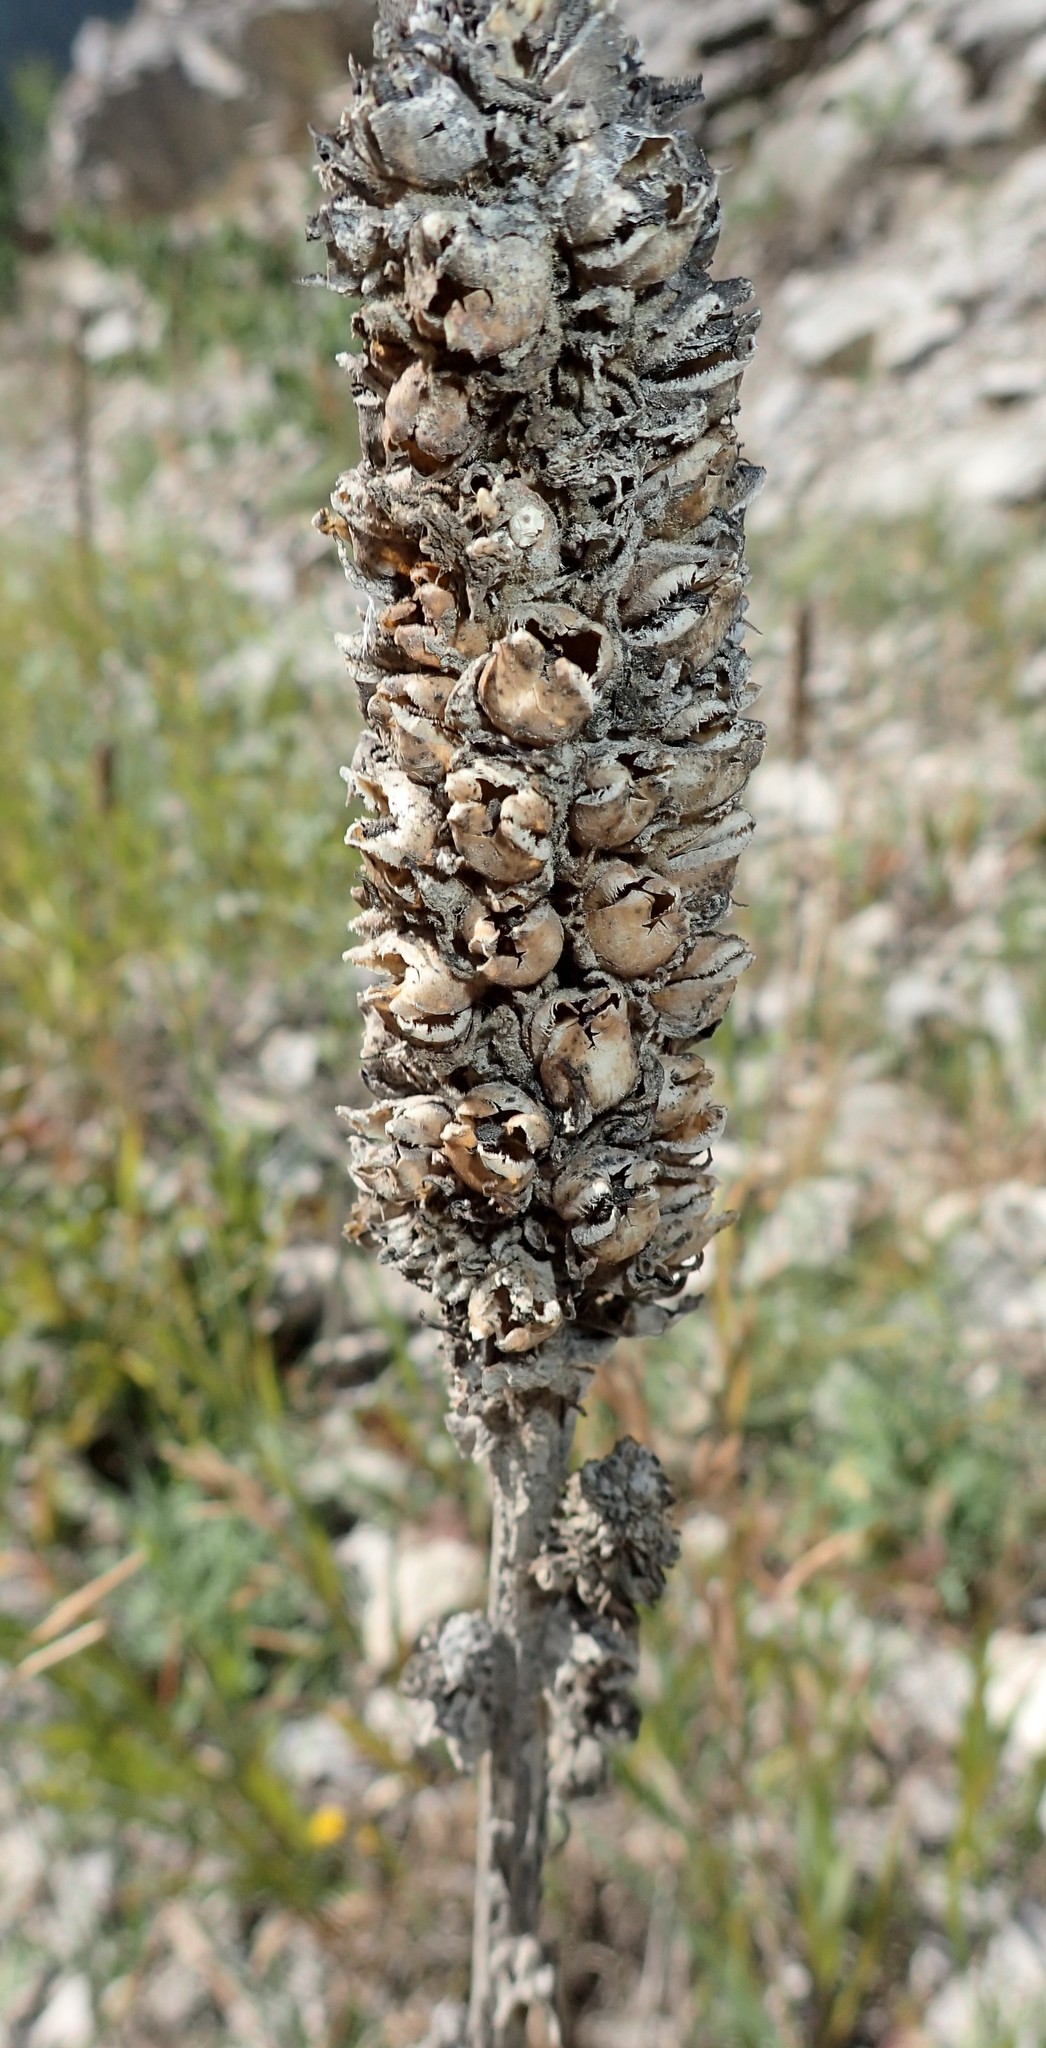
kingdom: Plantae
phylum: Tracheophyta
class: Magnoliopsida
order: Lamiales
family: Scrophulariaceae
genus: Verbascum
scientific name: Verbascum thapsus
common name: Common mullein
